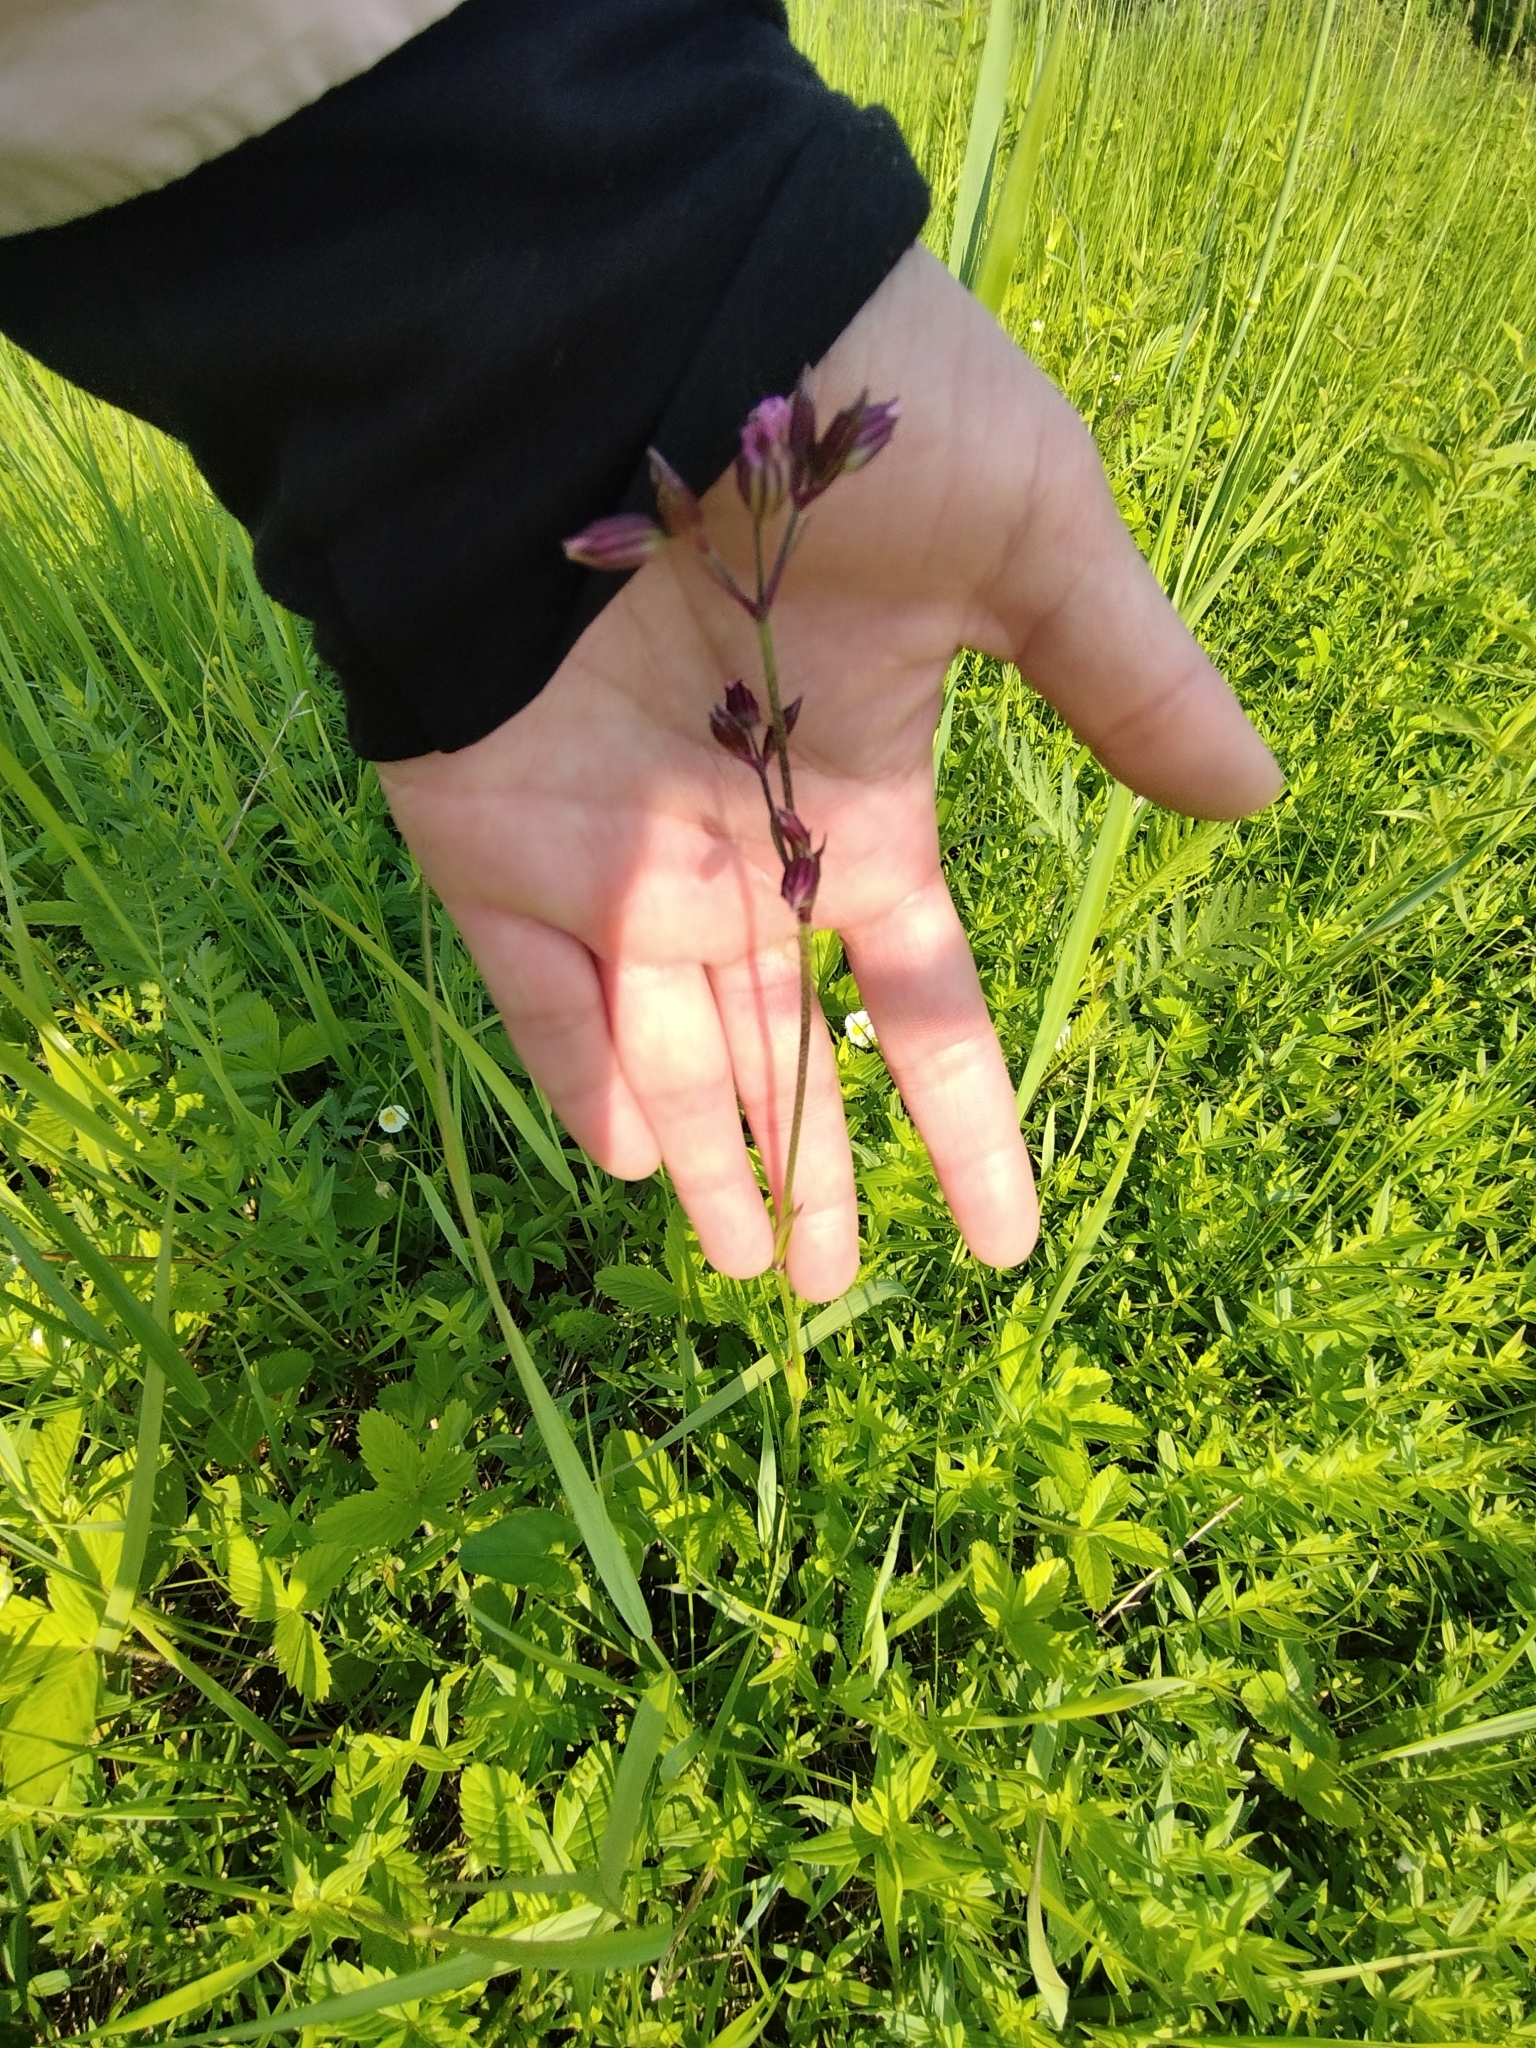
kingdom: Plantae
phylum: Tracheophyta
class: Magnoliopsida
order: Caryophyllales
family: Caryophyllaceae
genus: Silene
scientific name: Silene flos-cuculi
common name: Ragged-robin
